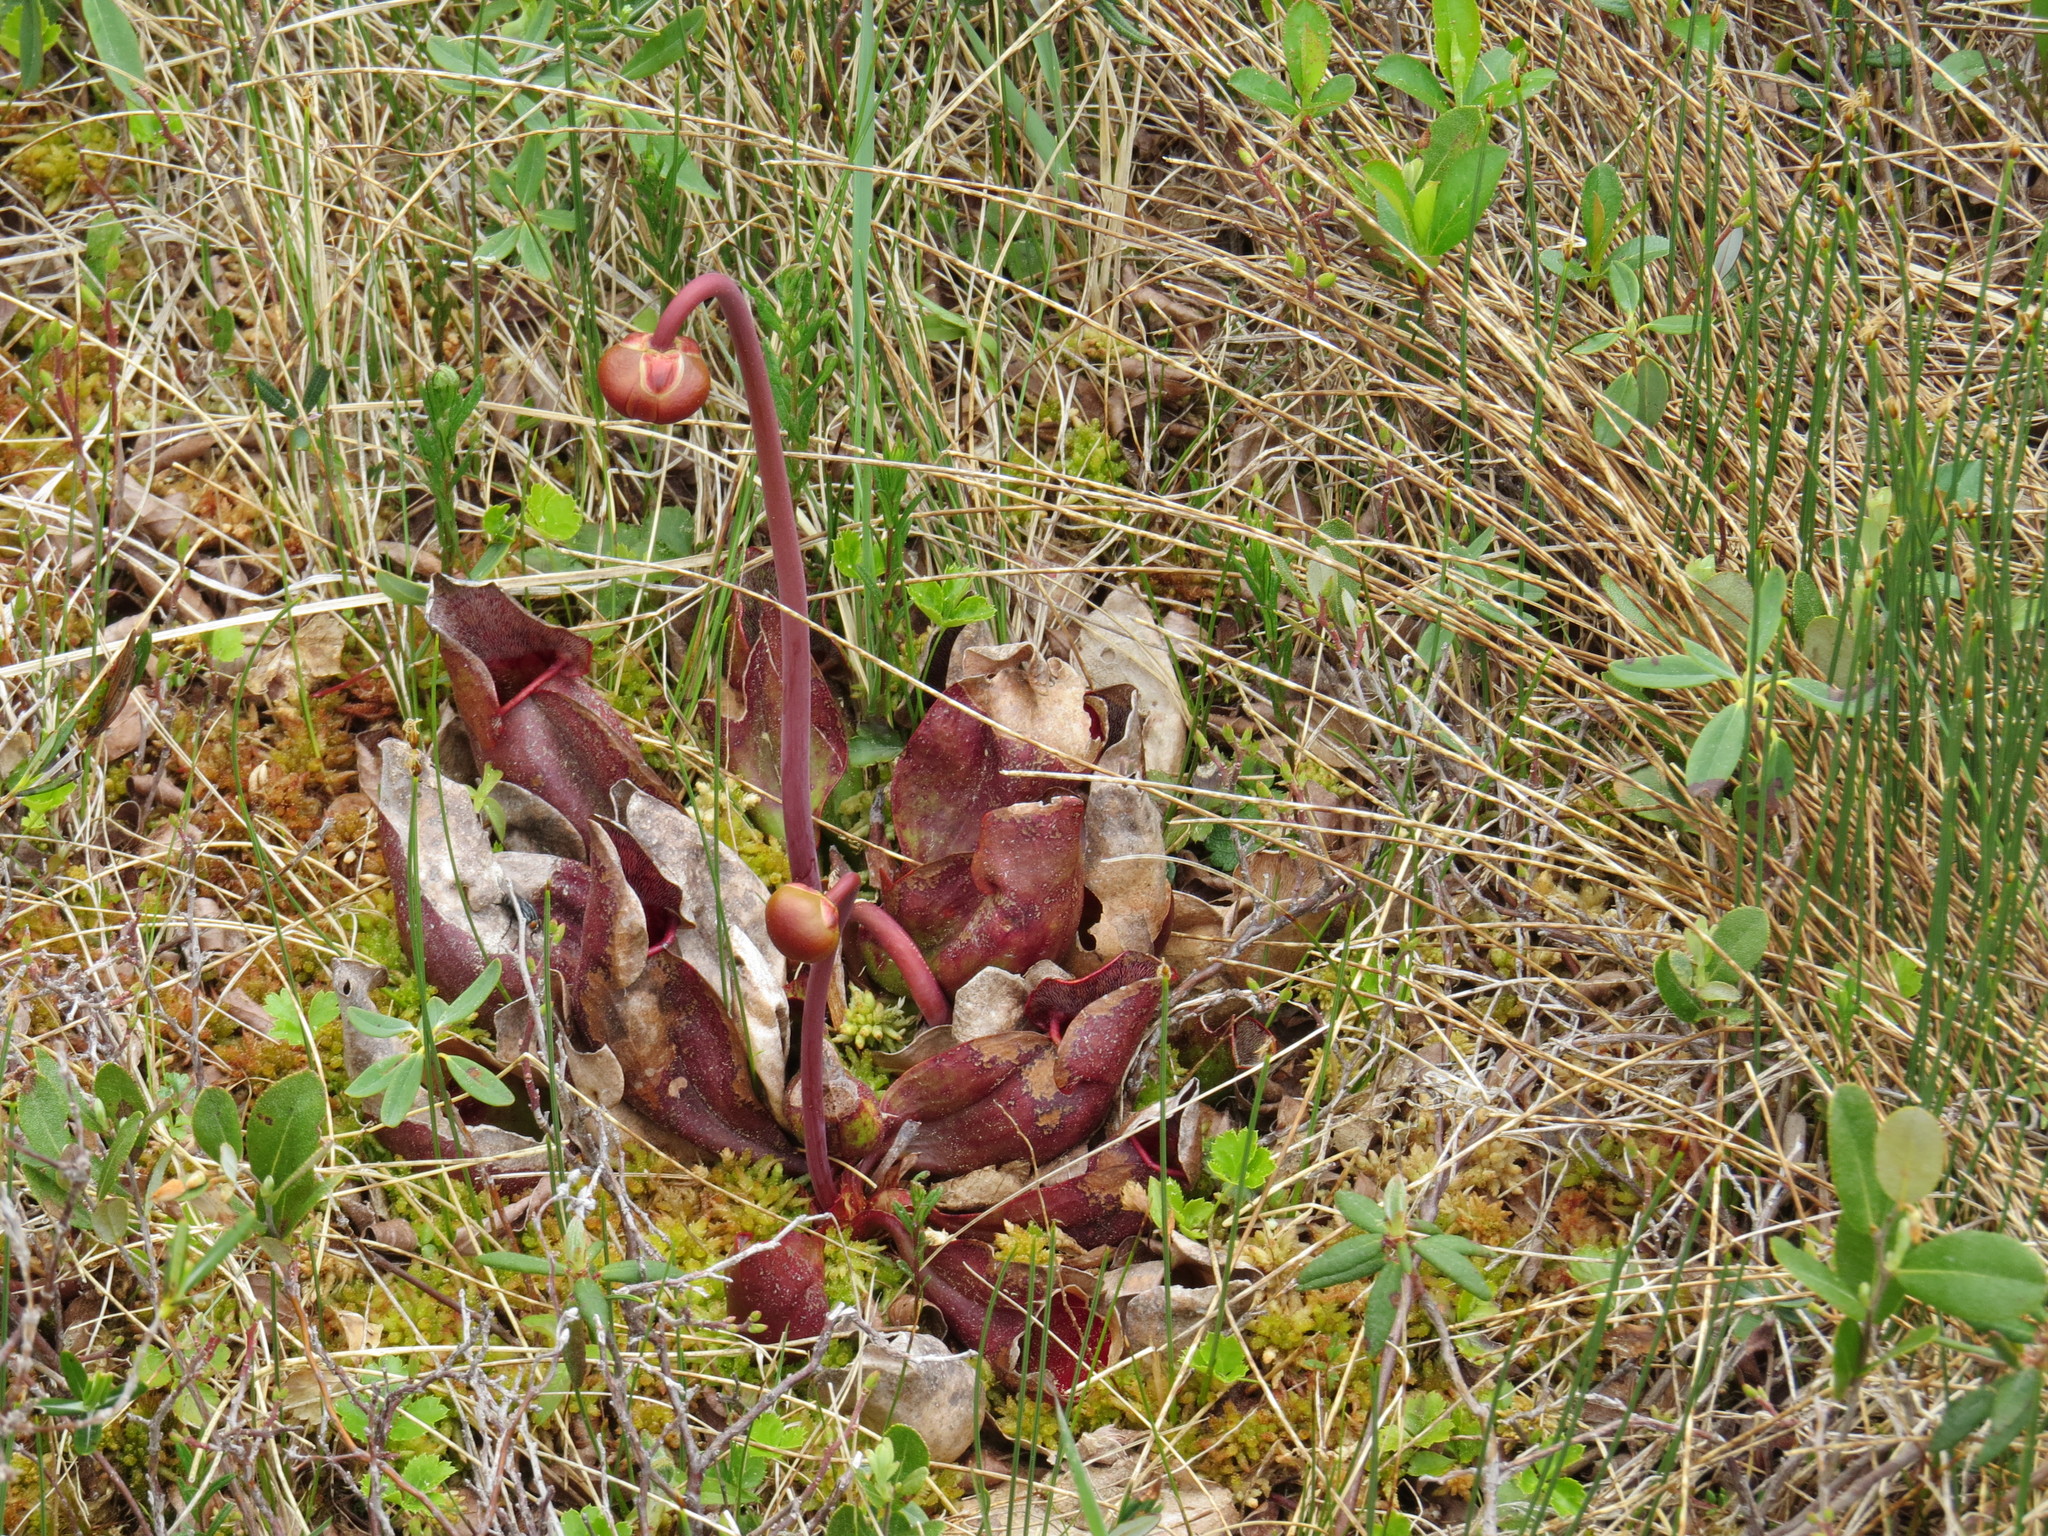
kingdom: Plantae
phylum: Tracheophyta
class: Magnoliopsida
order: Ericales
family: Sarraceniaceae
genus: Sarracenia
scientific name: Sarracenia purpurea
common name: Pitcherplant
